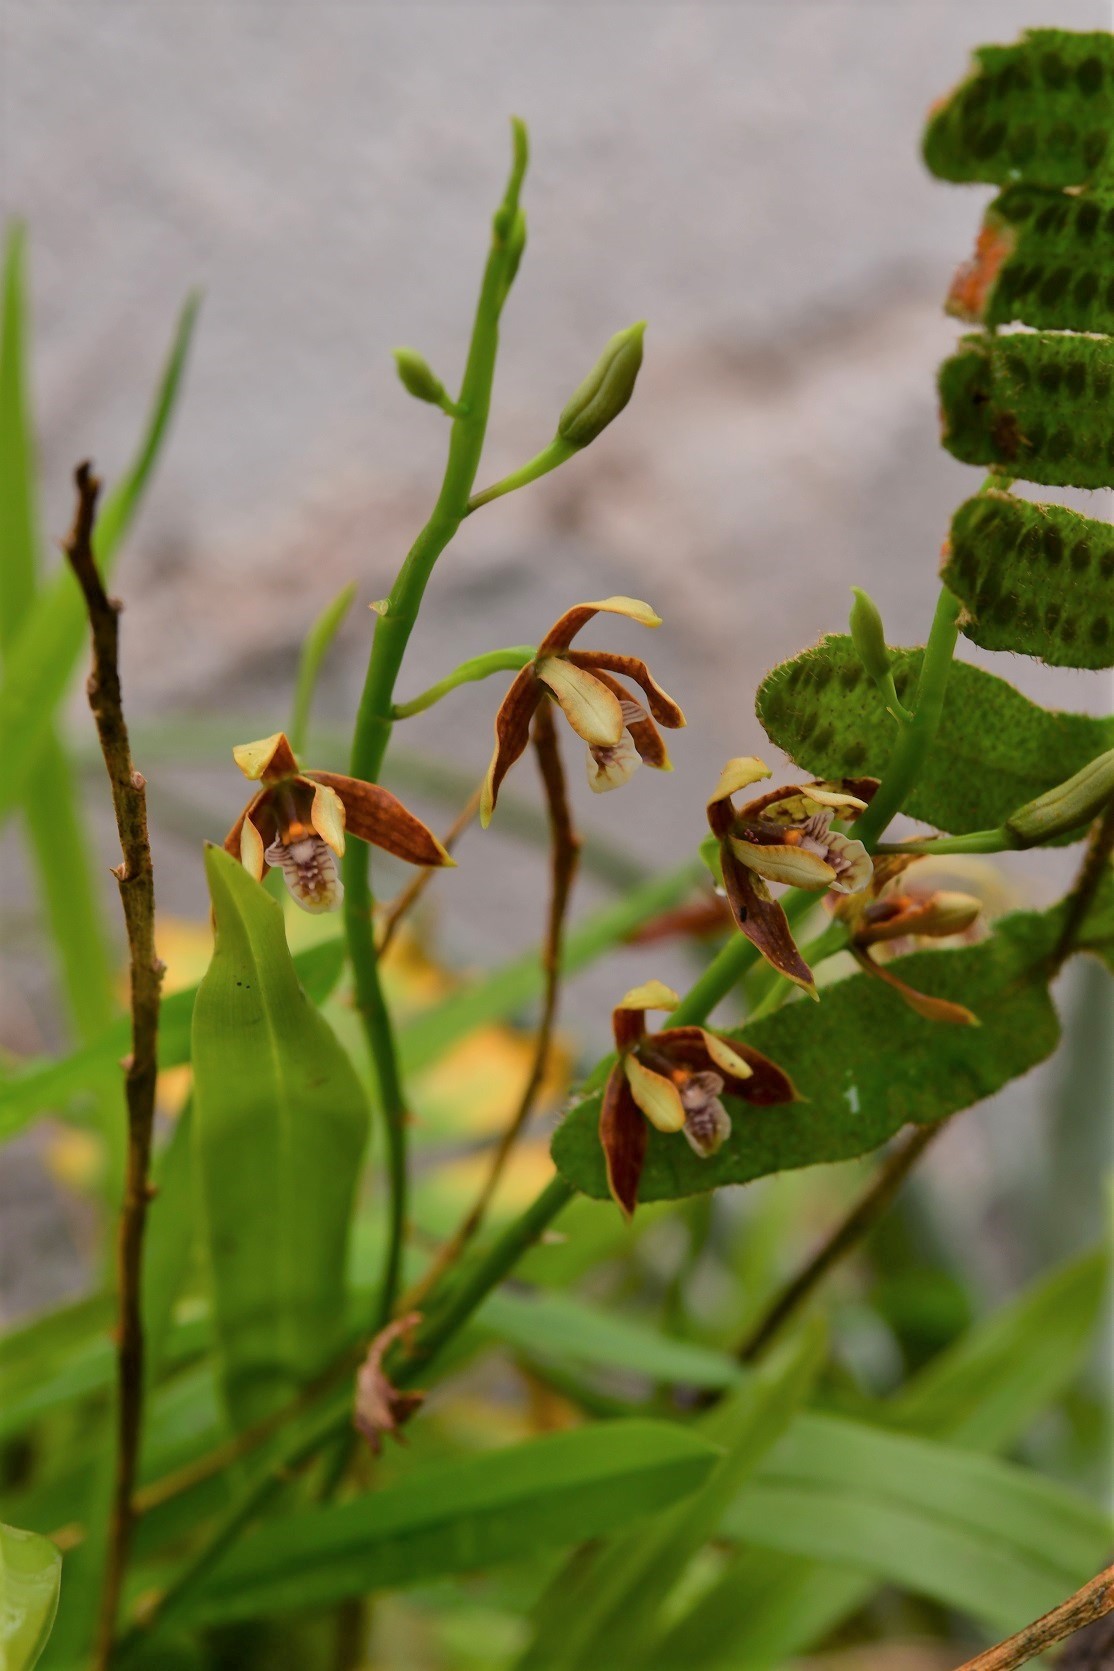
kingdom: Plantae
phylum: Tracheophyta
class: Liliopsida
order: Asparagales
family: Orchidaceae
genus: Prosthechea
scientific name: Prosthechea livida
